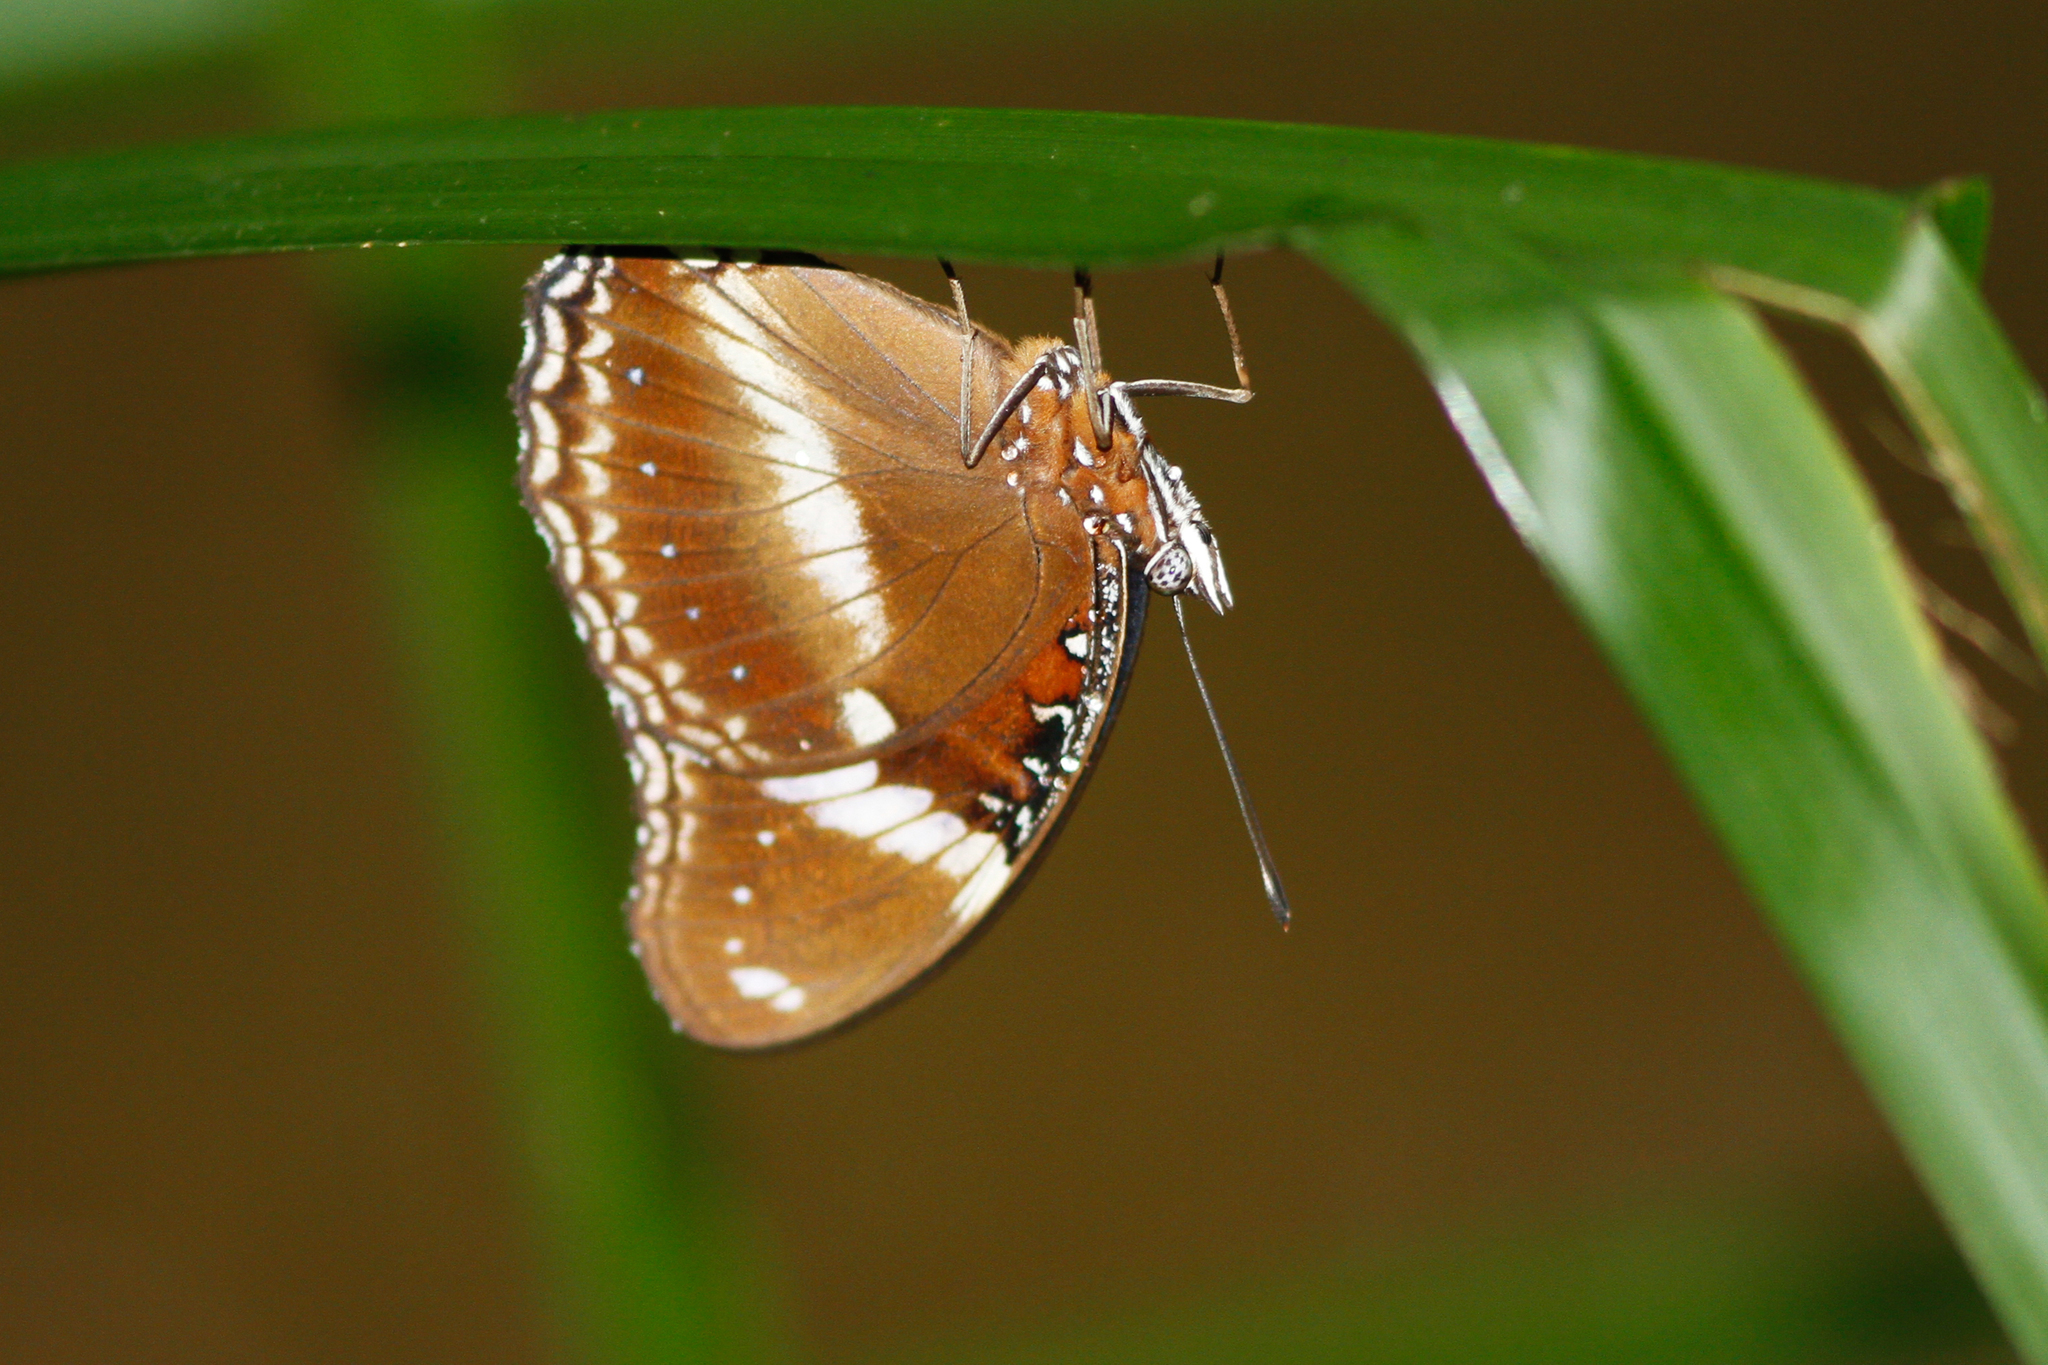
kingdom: Animalia
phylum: Arthropoda
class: Insecta
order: Lepidoptera
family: Nymphalidae
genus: Hypolimnas
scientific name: Hypolimnas bolina
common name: Great eggfly
